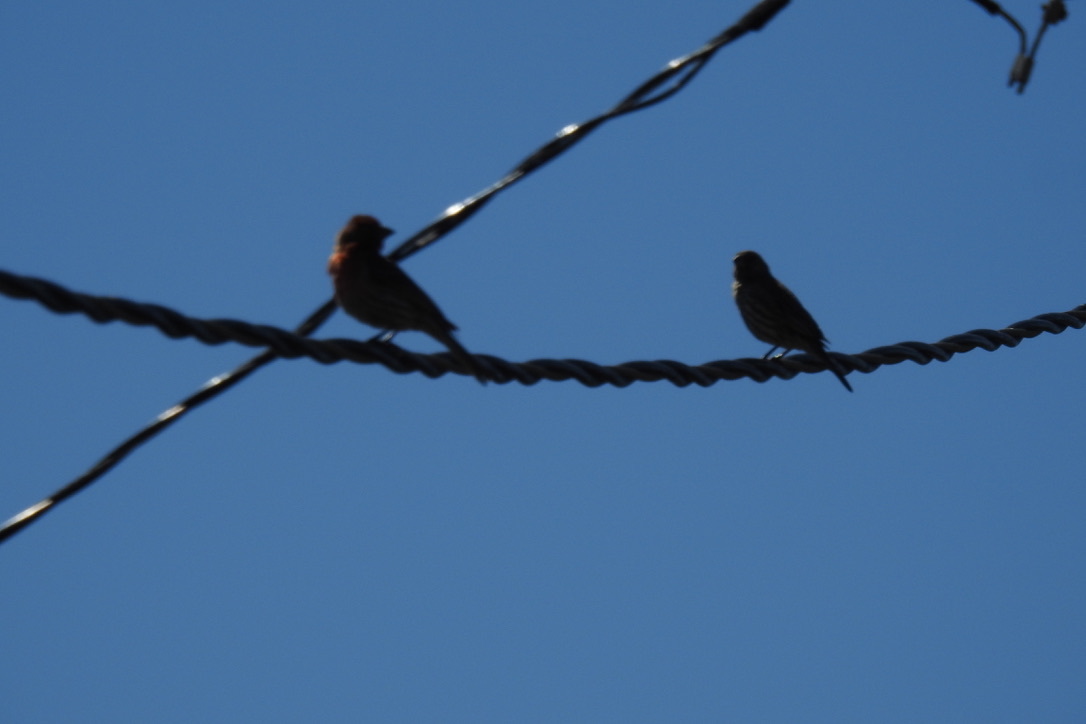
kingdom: Animalia
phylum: Chordata
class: Aves
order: Passeriformes
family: Fringillidae
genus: Haemorhous
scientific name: Haemorhous mexicanus
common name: House finch
